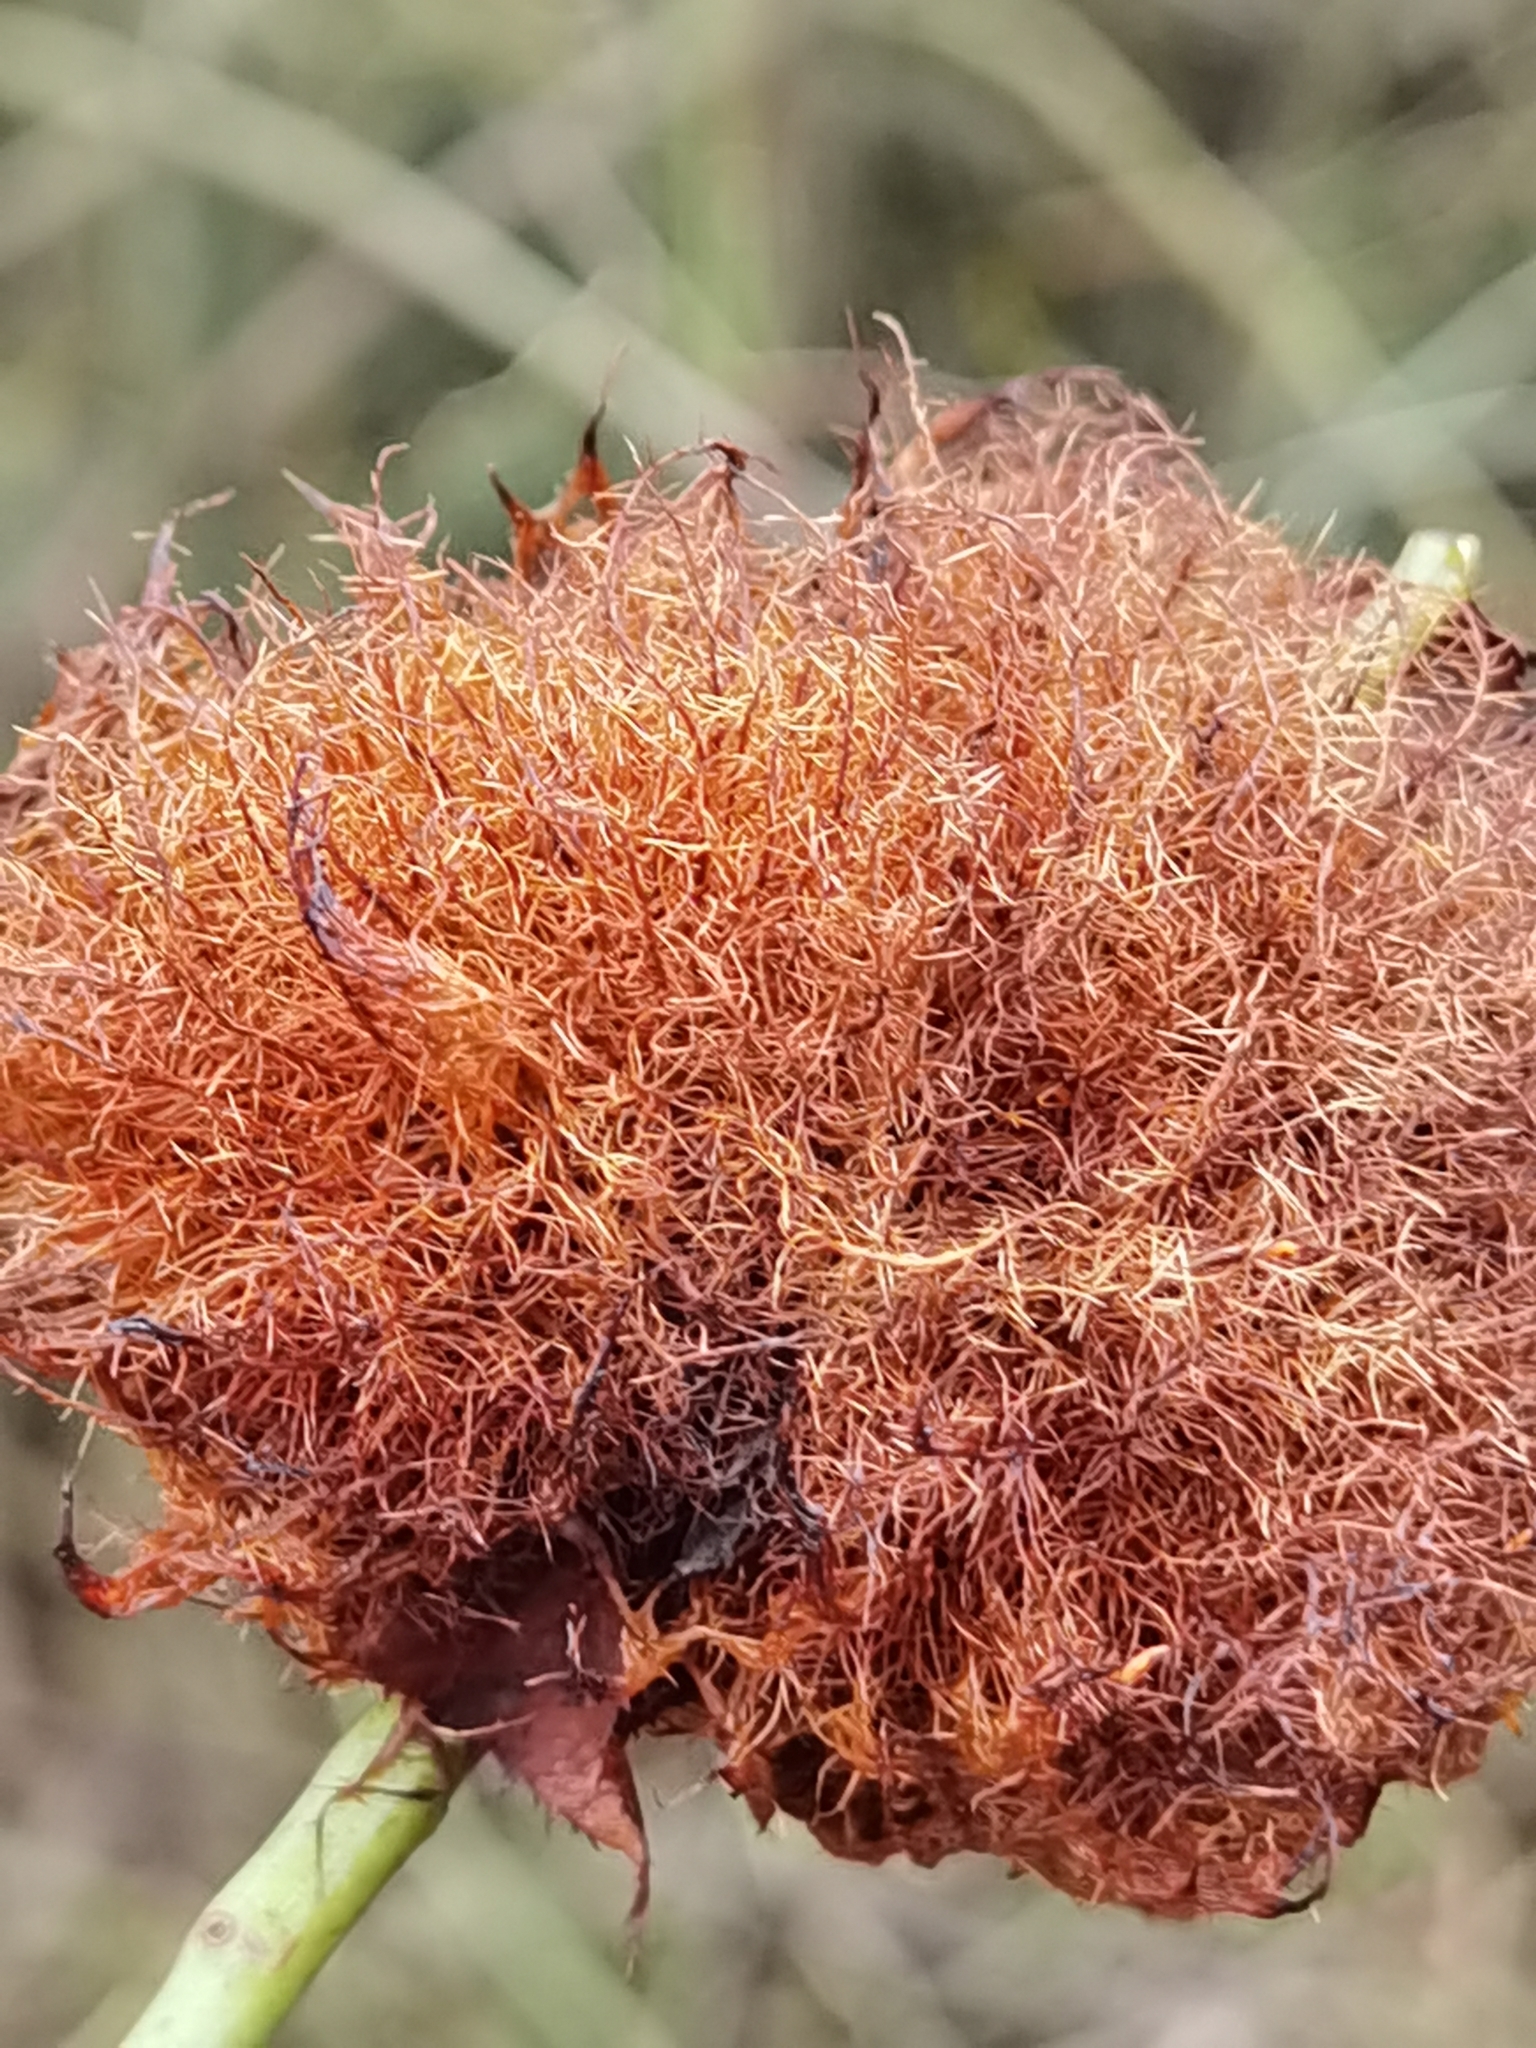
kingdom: Animalia
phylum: Arthropoda
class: Insecta
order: Hymenoptera
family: Cynipidae
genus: Diplolepis
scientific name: Diplolepis rosae
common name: Bedeguar gall
